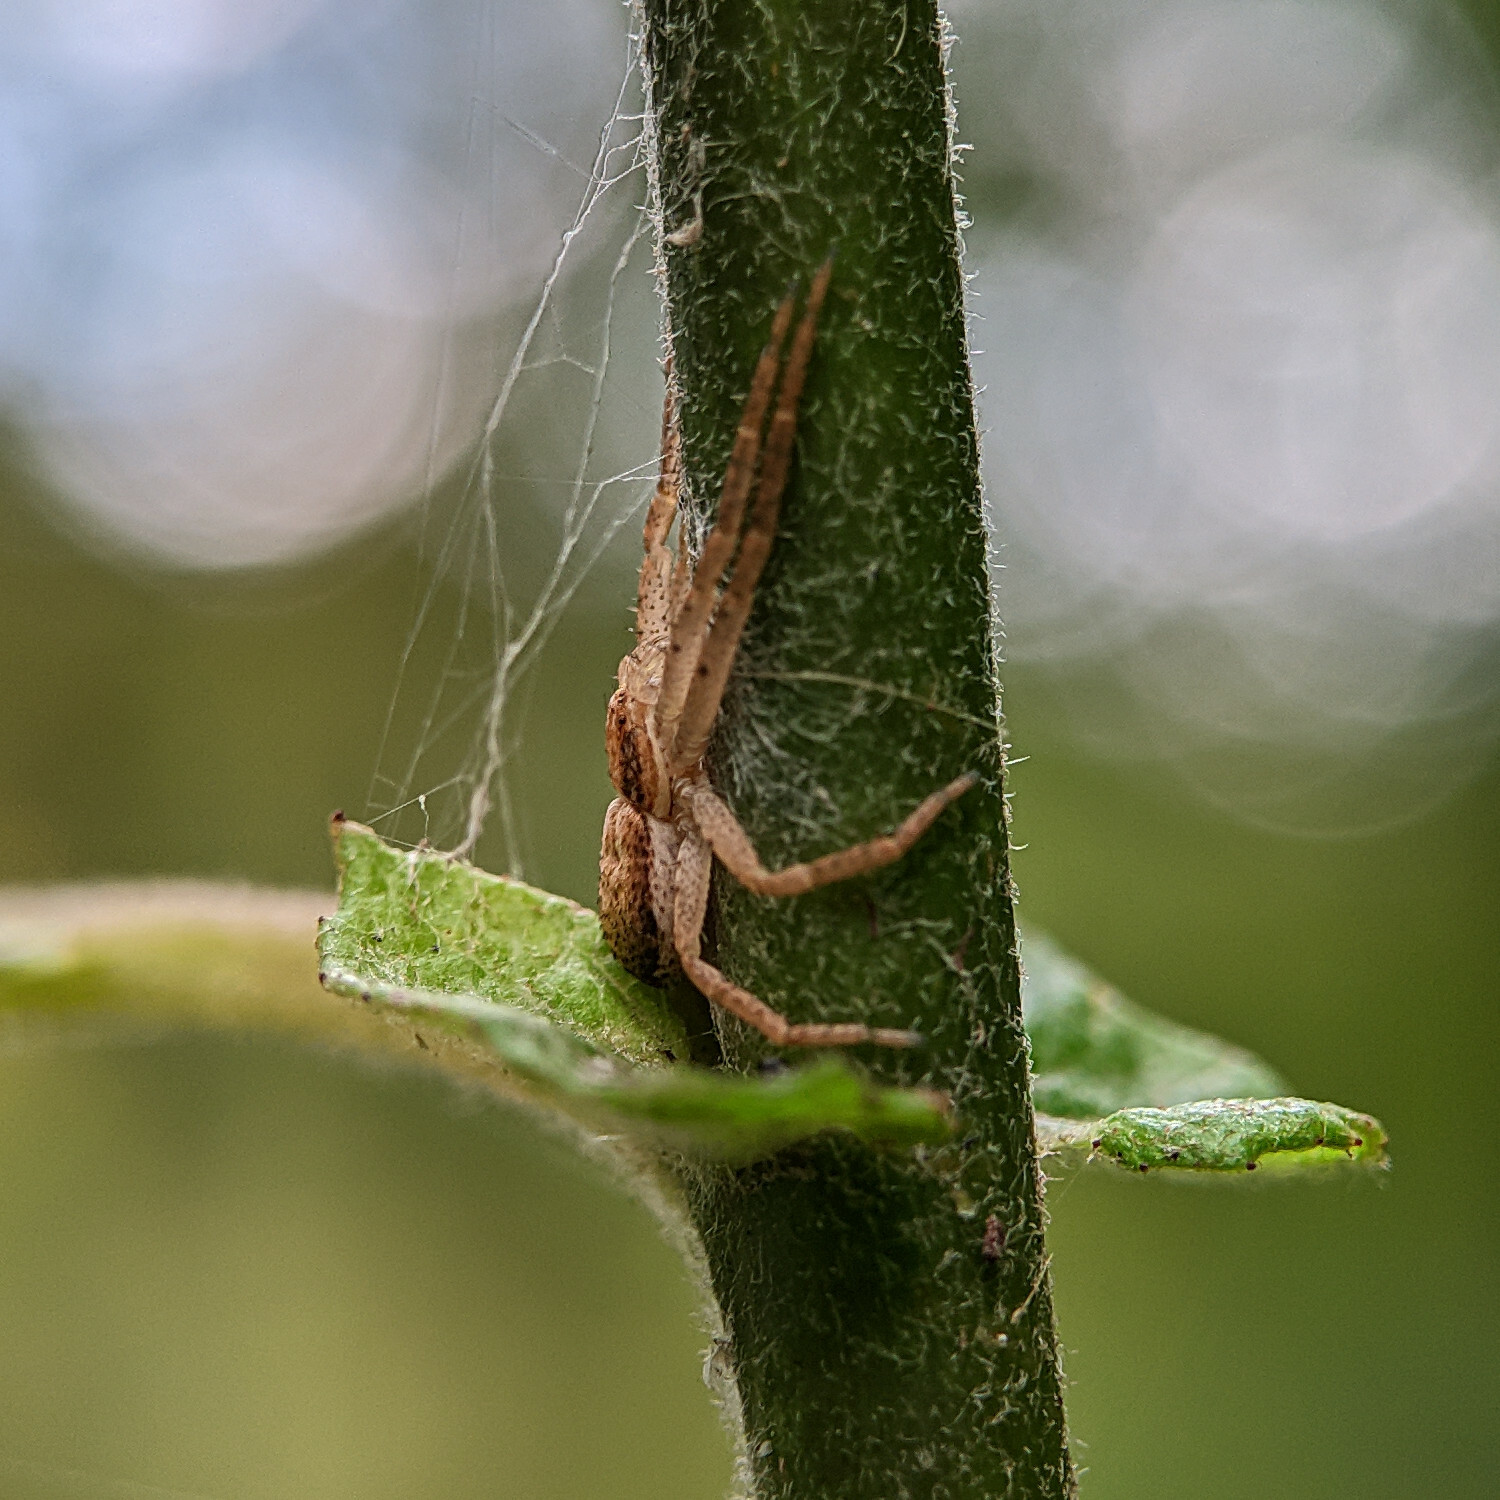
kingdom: Animalia
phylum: Arthropoda
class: Arachnida
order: Araneae
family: Philodromidae
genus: Philodromus
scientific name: Philodromus dispar
